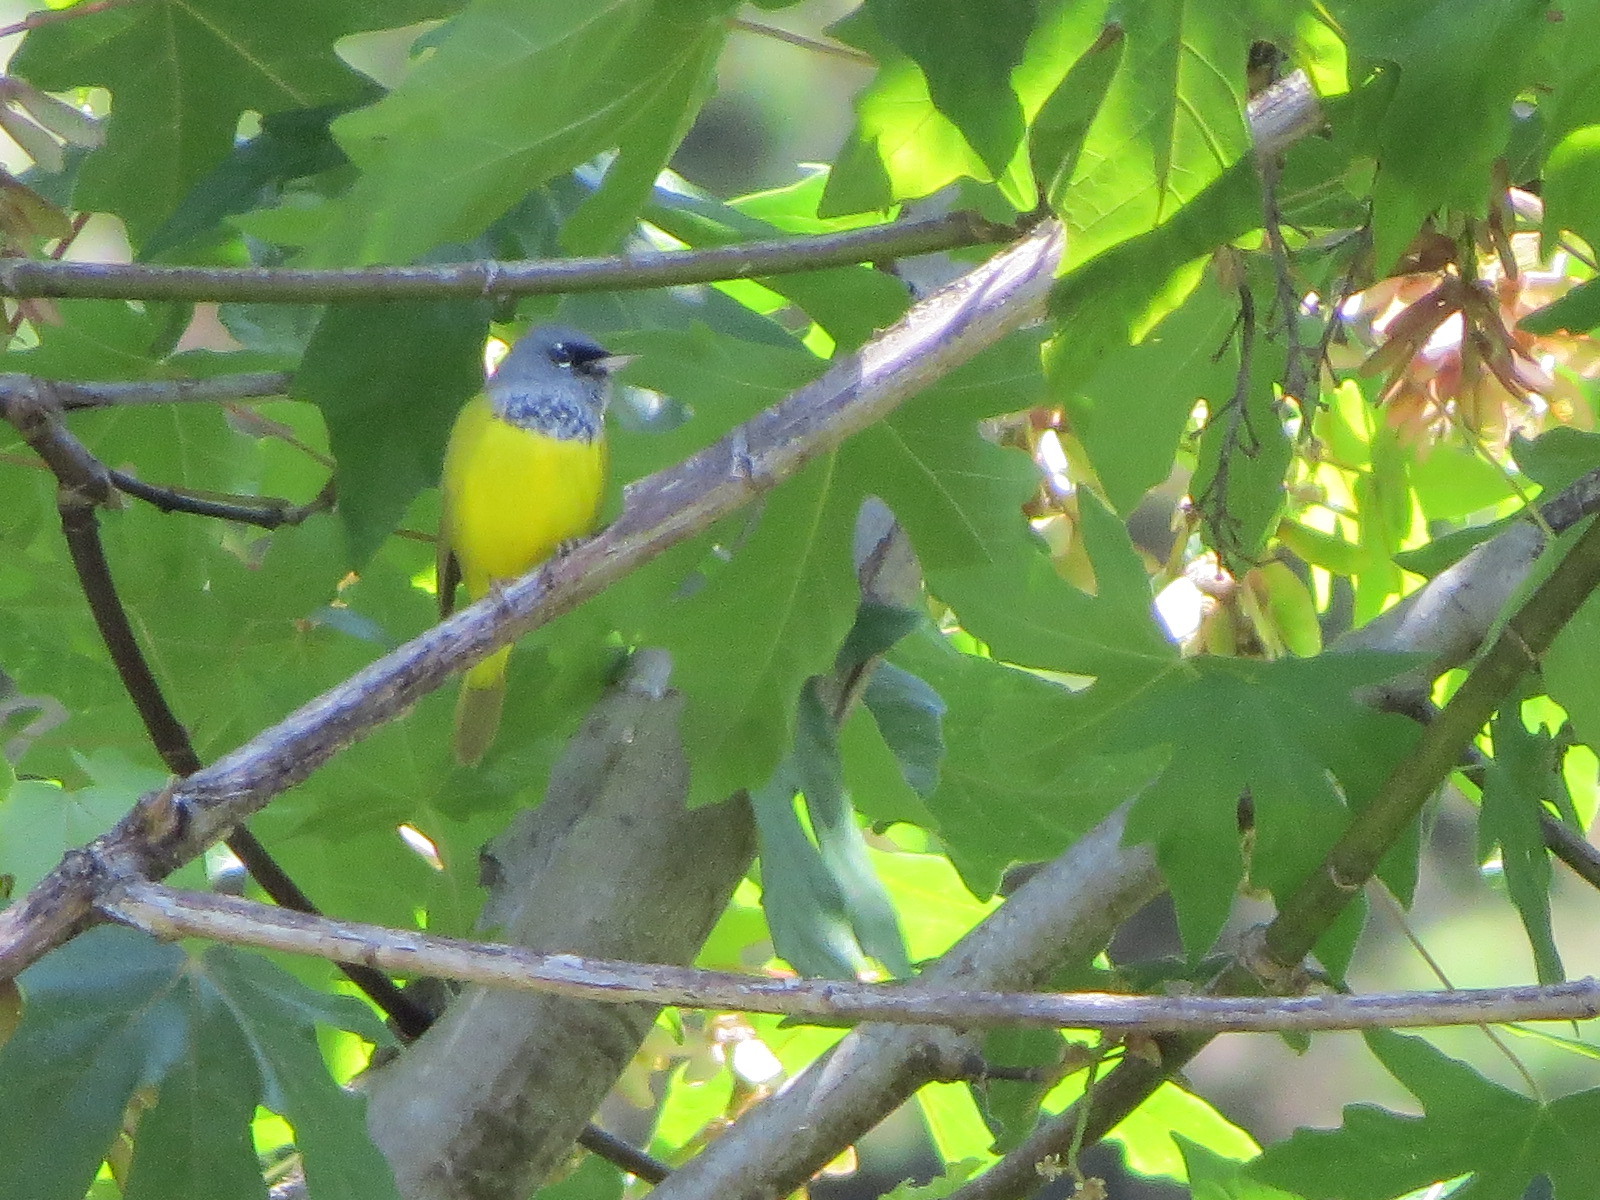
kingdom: Animalia
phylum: Chordata
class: Aves
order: Passeriformes
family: Parulidae
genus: Geothlypis
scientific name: Geothlypis tolmiei
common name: Macgillivray's warbler
